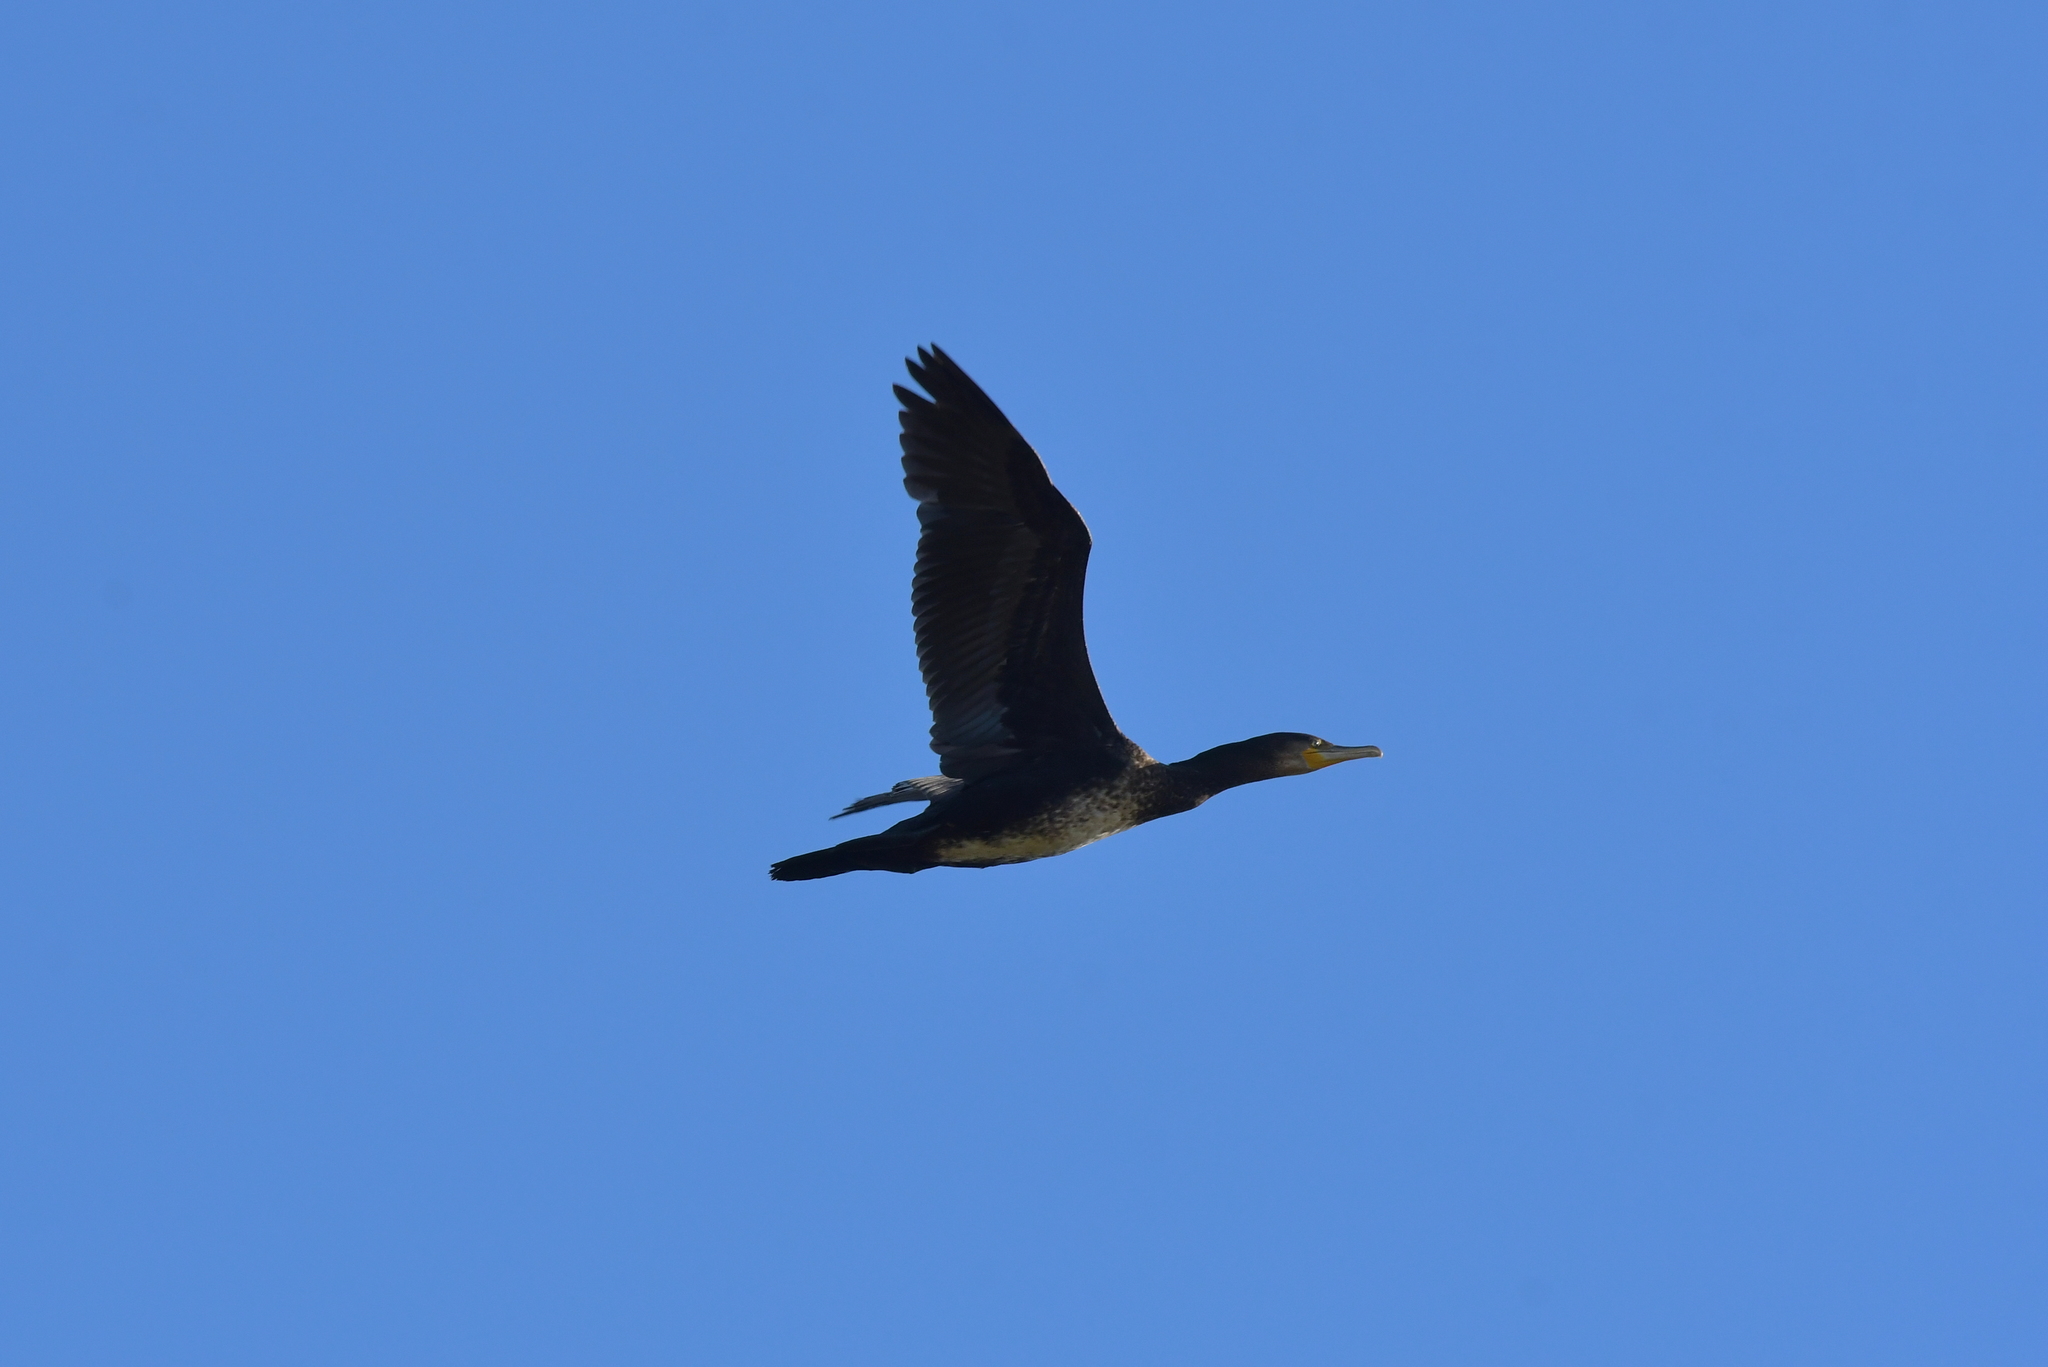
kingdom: Animalia
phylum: Chordata
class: Aves
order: Suliformes
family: Phalacrocoracidae
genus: Phalacrocorax
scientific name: Phalacrocorax carbo
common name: Great cormorant
